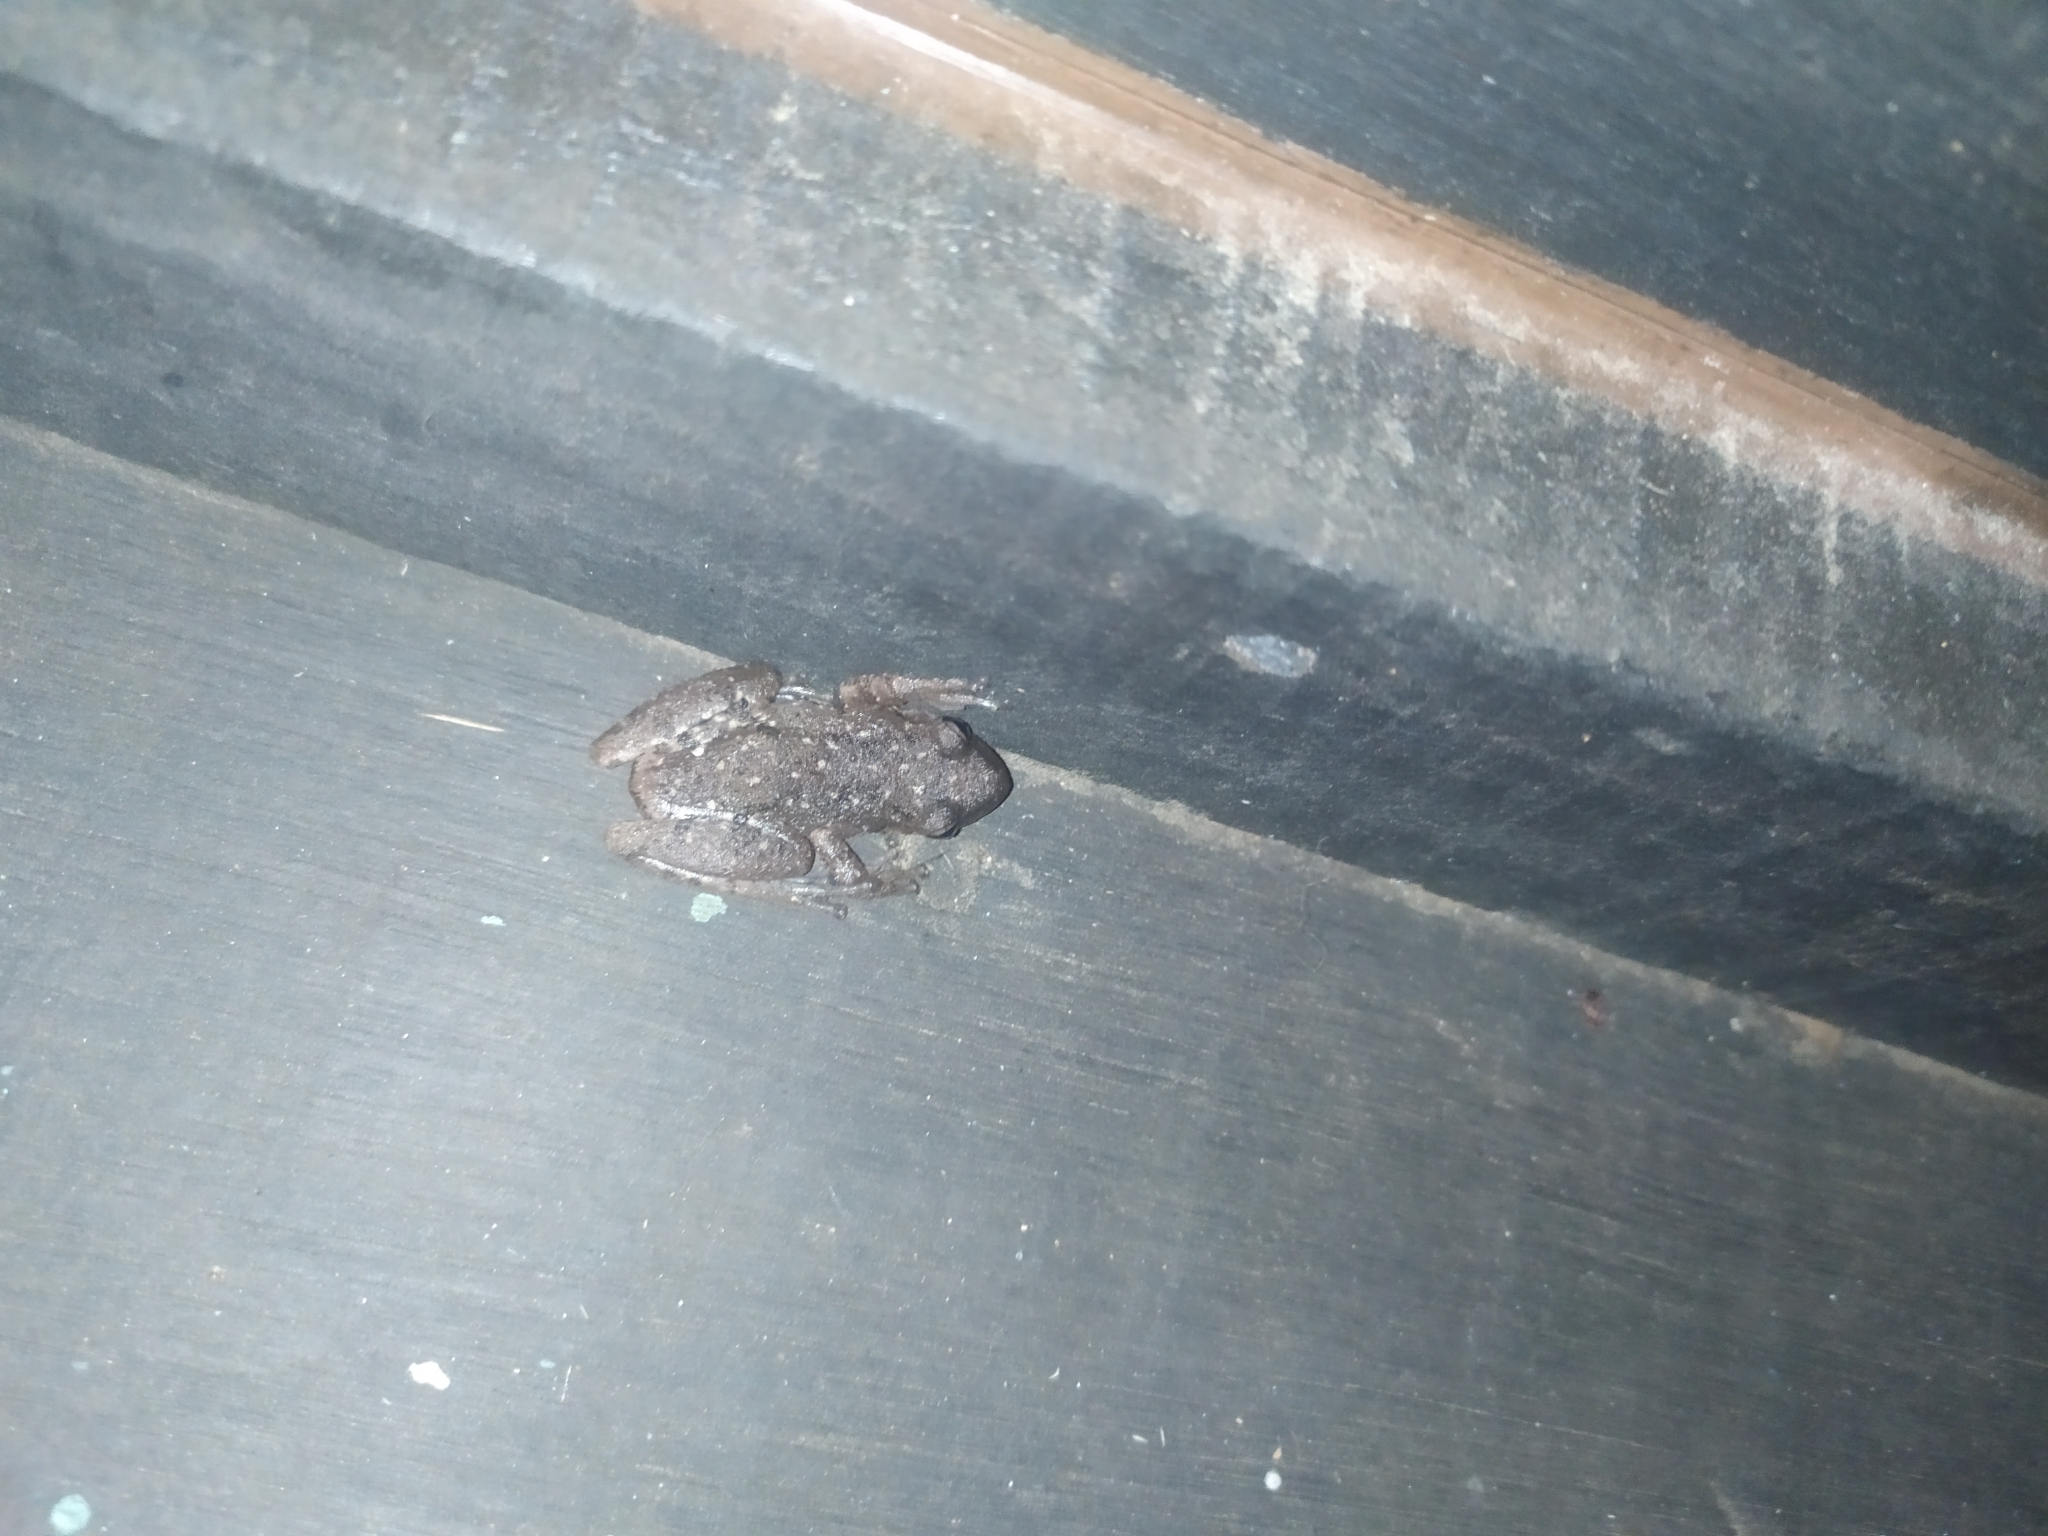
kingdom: Animalia
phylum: Chordata
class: Amphibia
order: Anura
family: Hylidae
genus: Scinax
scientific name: Scinax granulatus
